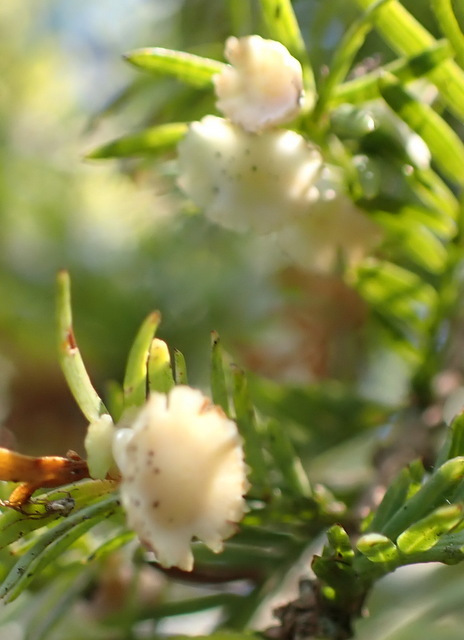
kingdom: Animalia
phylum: Arthropoda
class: Insecta
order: Diptera
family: Cecidomyiidae
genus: Taxodiomyia
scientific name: Taxodiomyia cupressi
